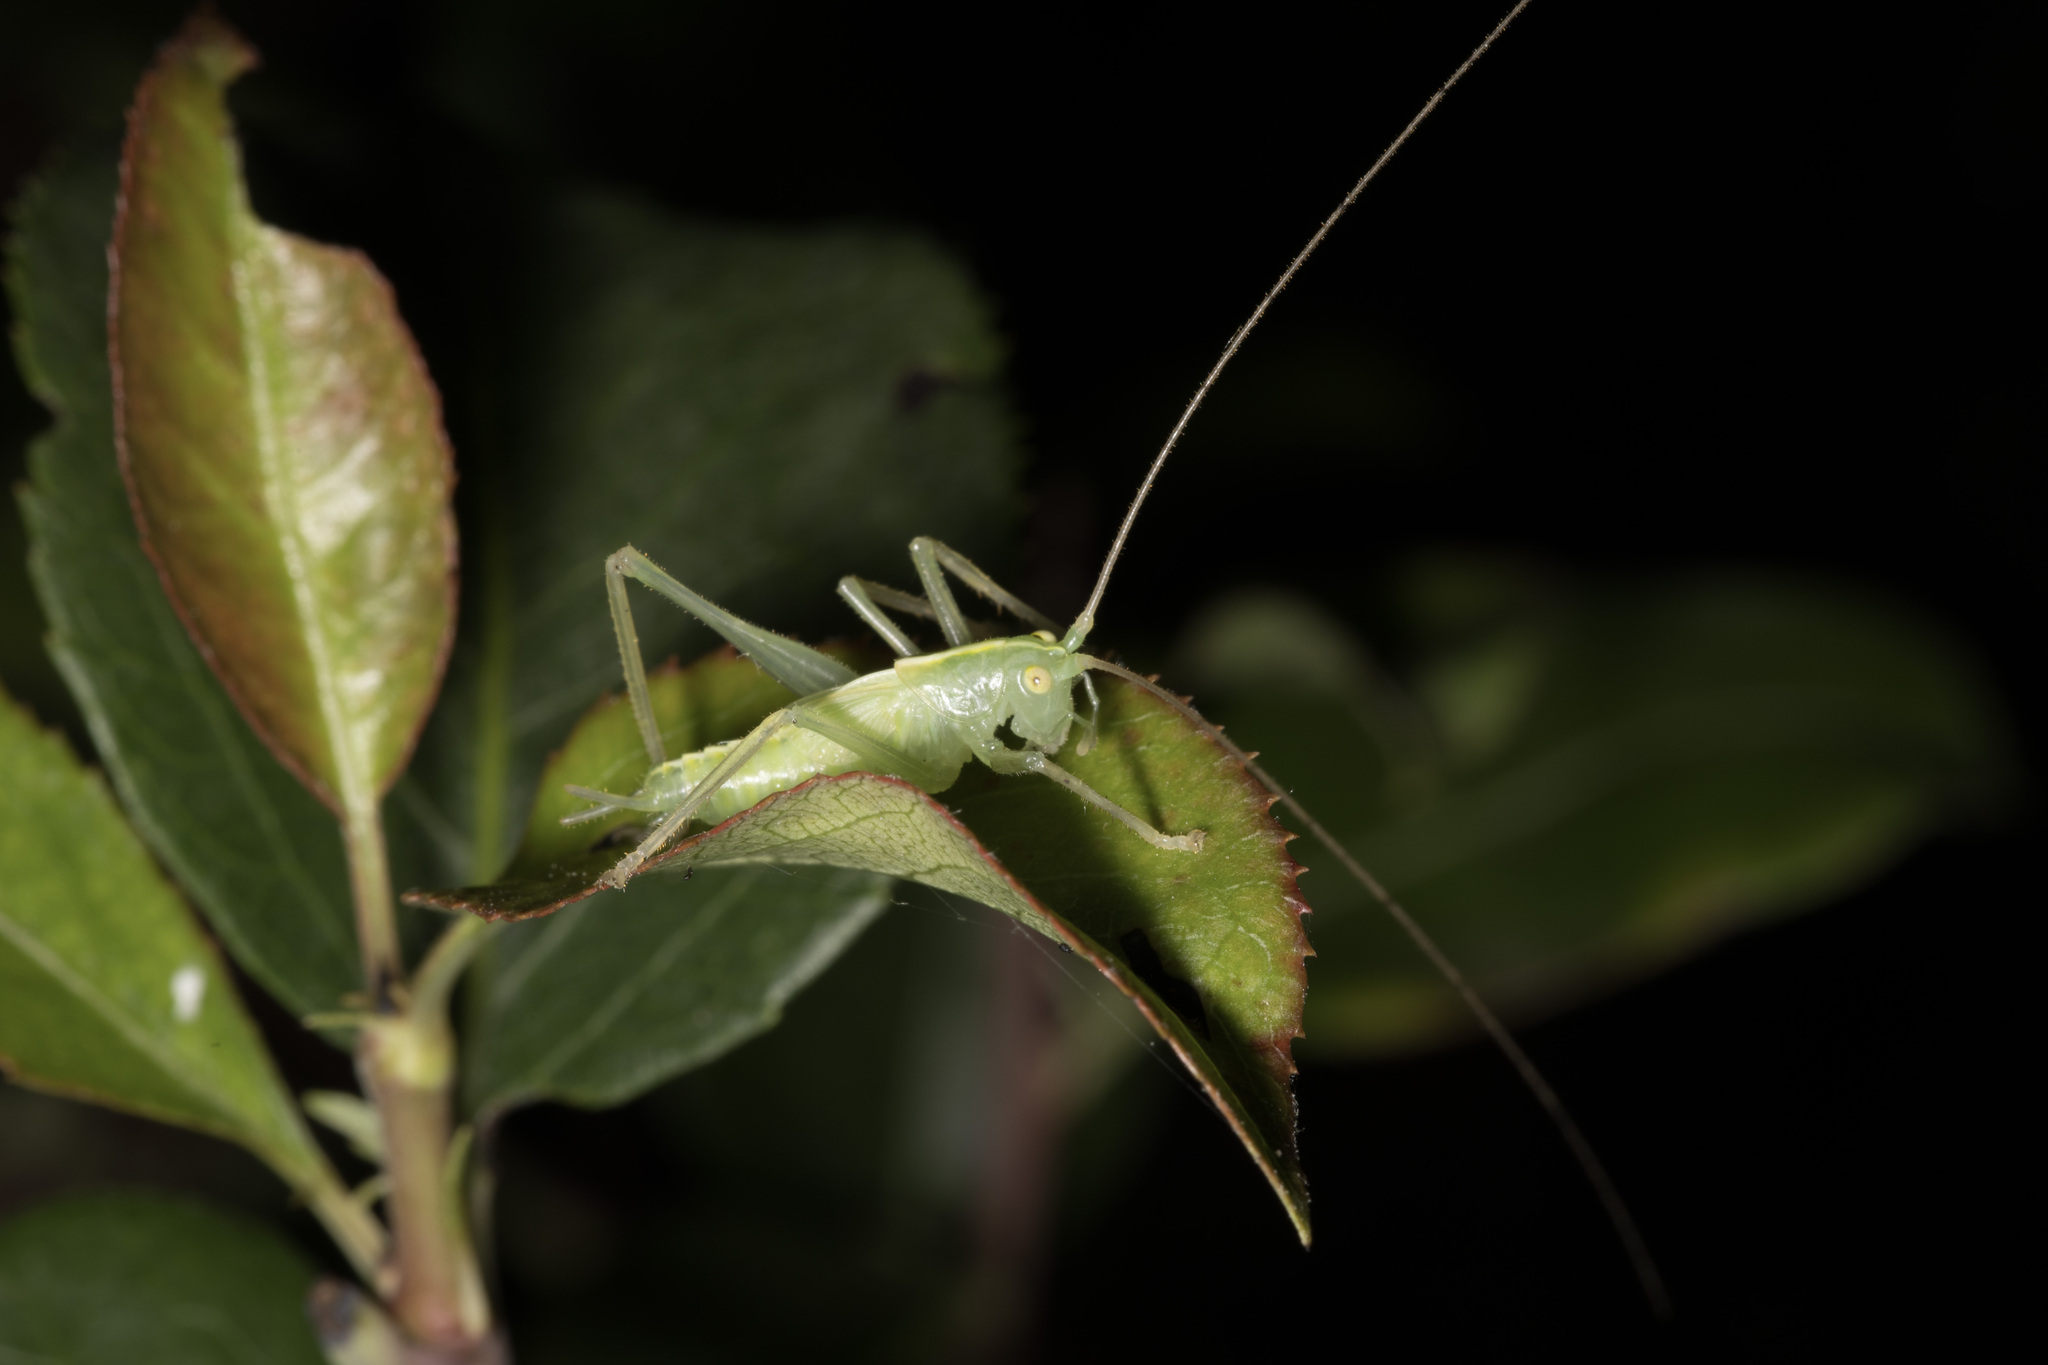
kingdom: Animalia
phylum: Arthropoda
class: Insecta
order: Orthoptera
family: Tettigoniidae
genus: Meconema
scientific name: Meconema thalassinum
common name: Oak bush-cricket
